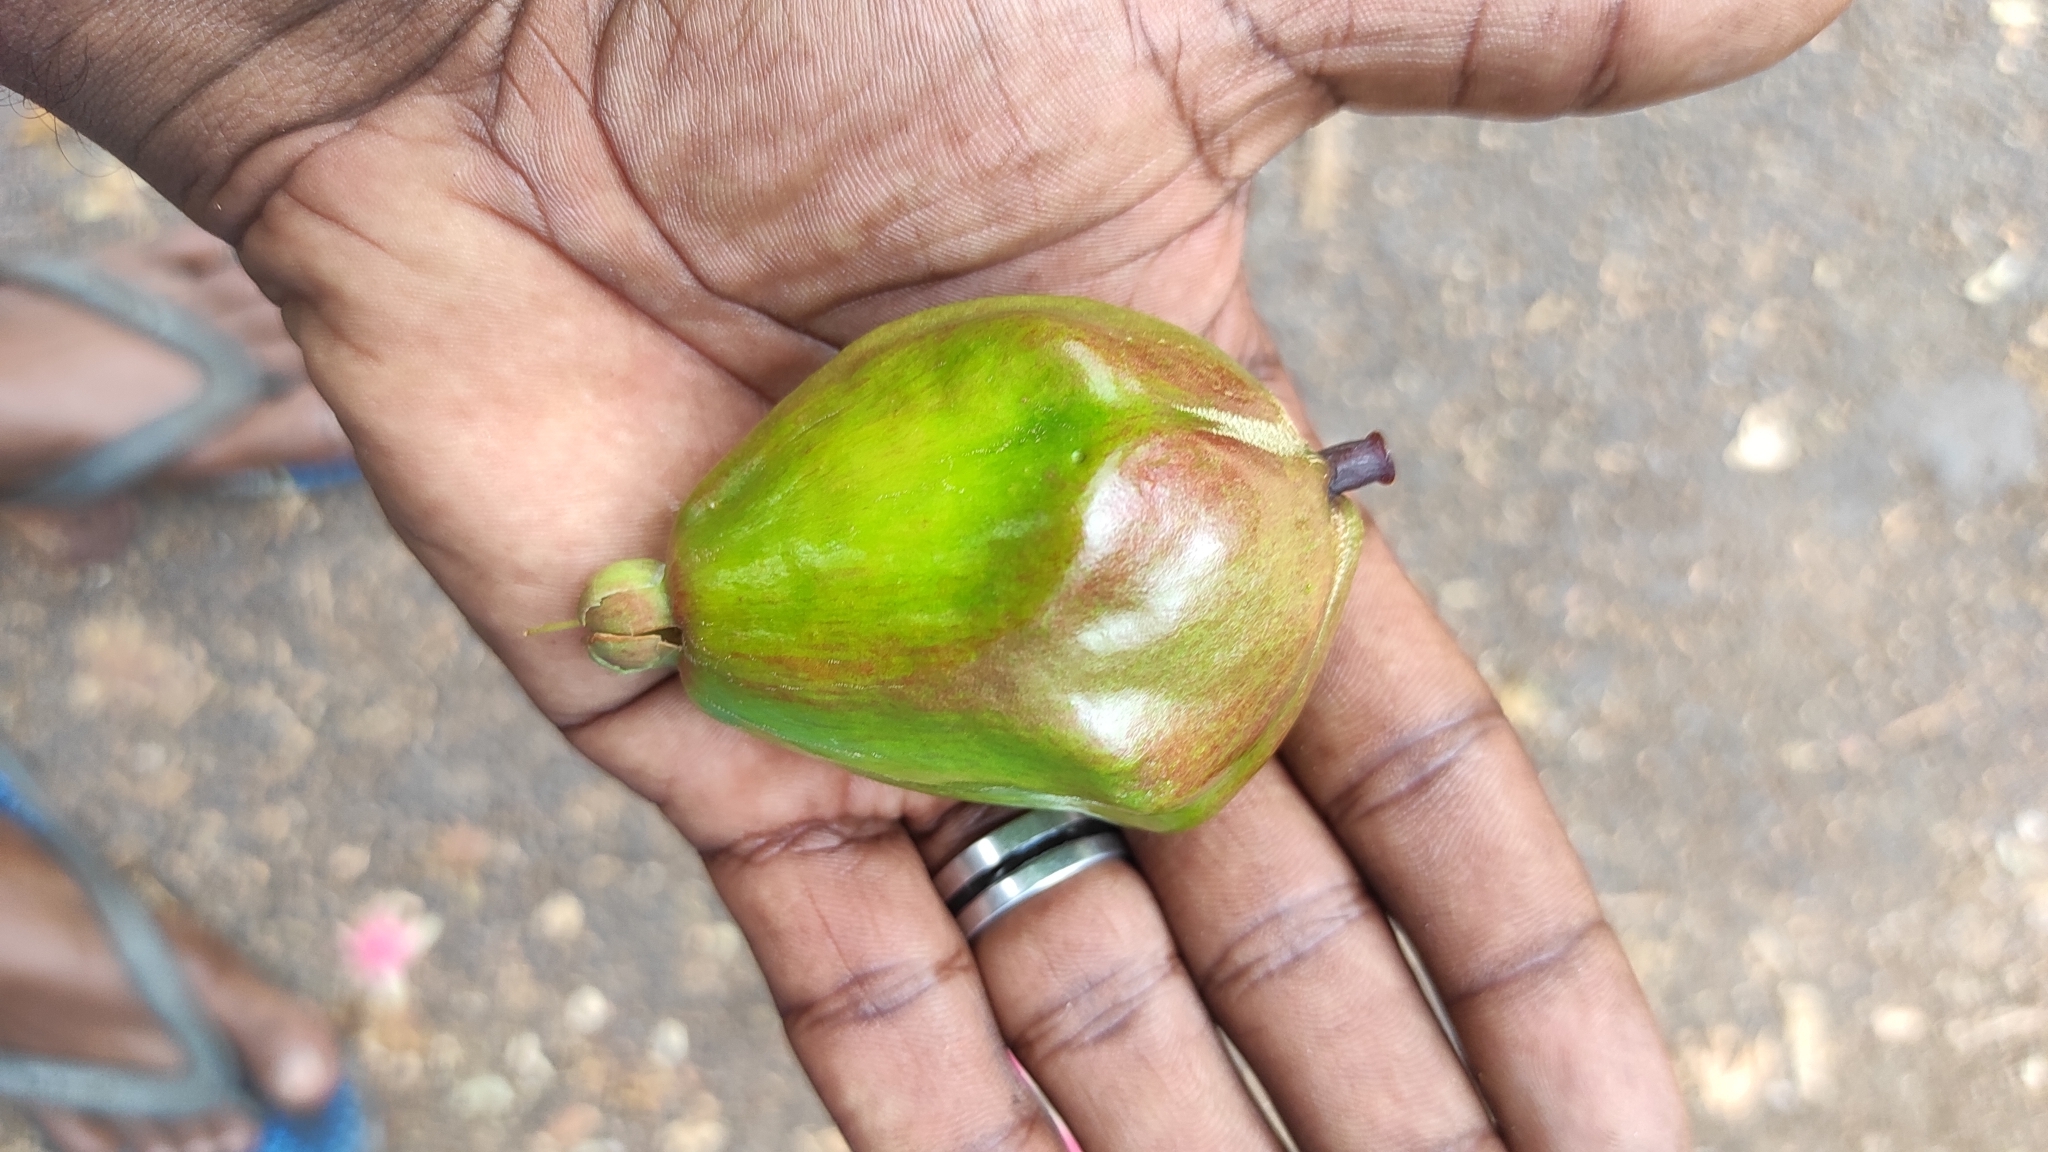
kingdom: Plantae
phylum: Tracheophyta
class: Magnoliopsida
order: Ericales
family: Lecythidaceae
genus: Barringtonia
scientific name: Barringtonia racemosa
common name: Brackwater mangrove
